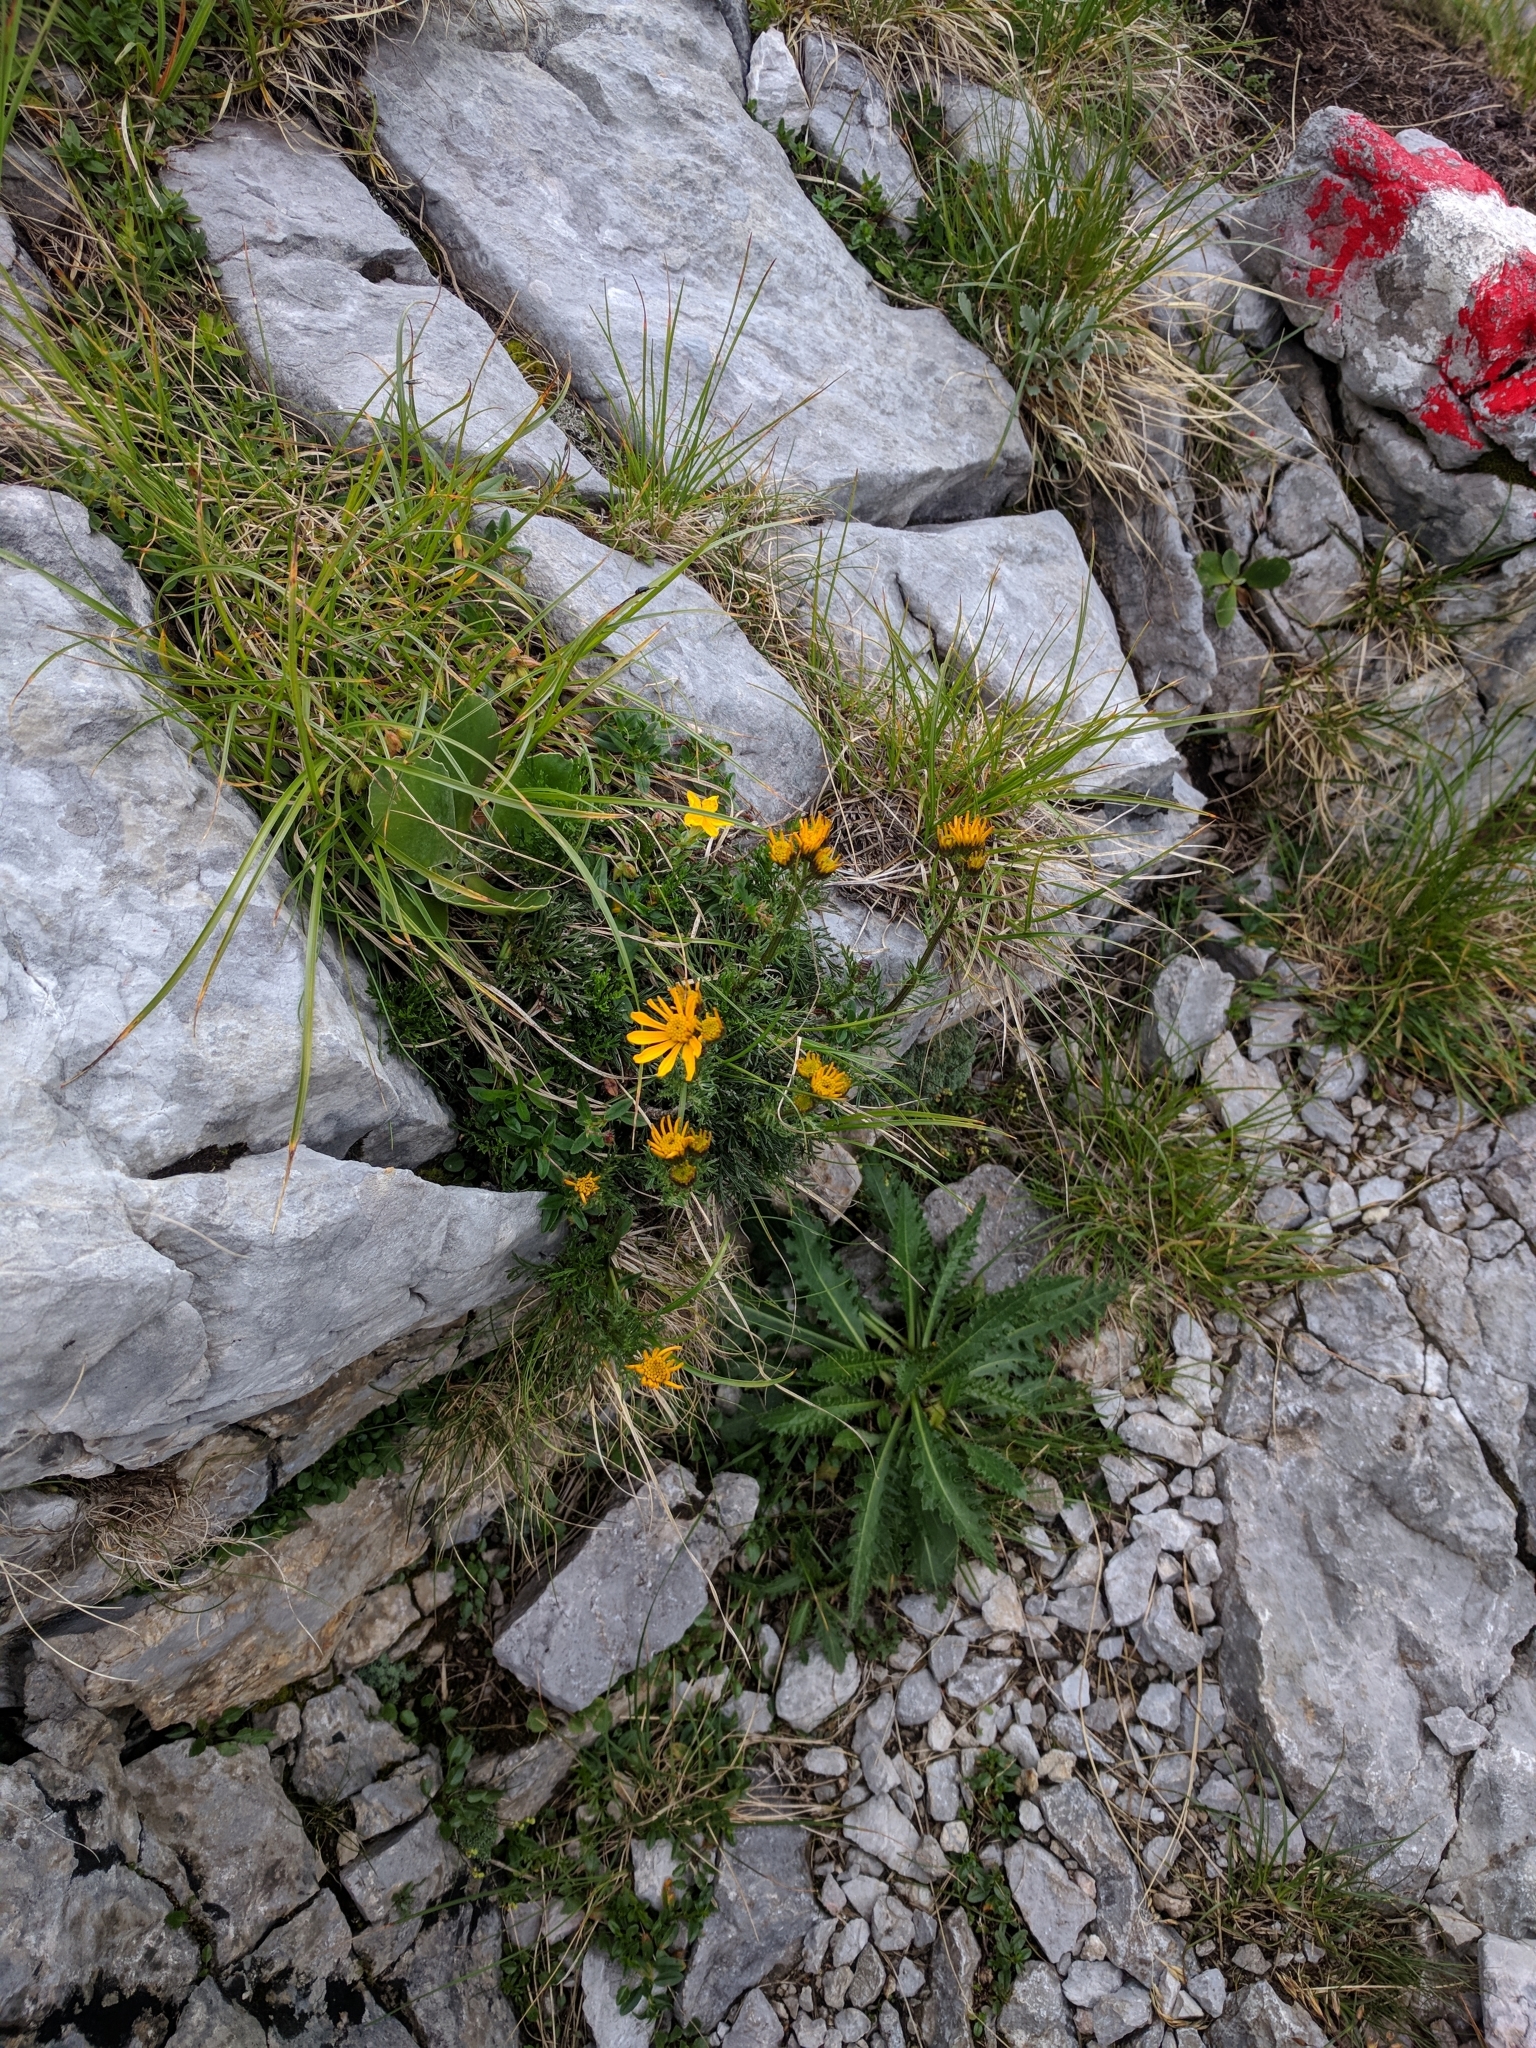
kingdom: Plantae
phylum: Tracheophyta
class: Magnoliopsida
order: Asterales
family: Asteraceae
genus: Jacobaea
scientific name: Jacobaea abrotanifolia
